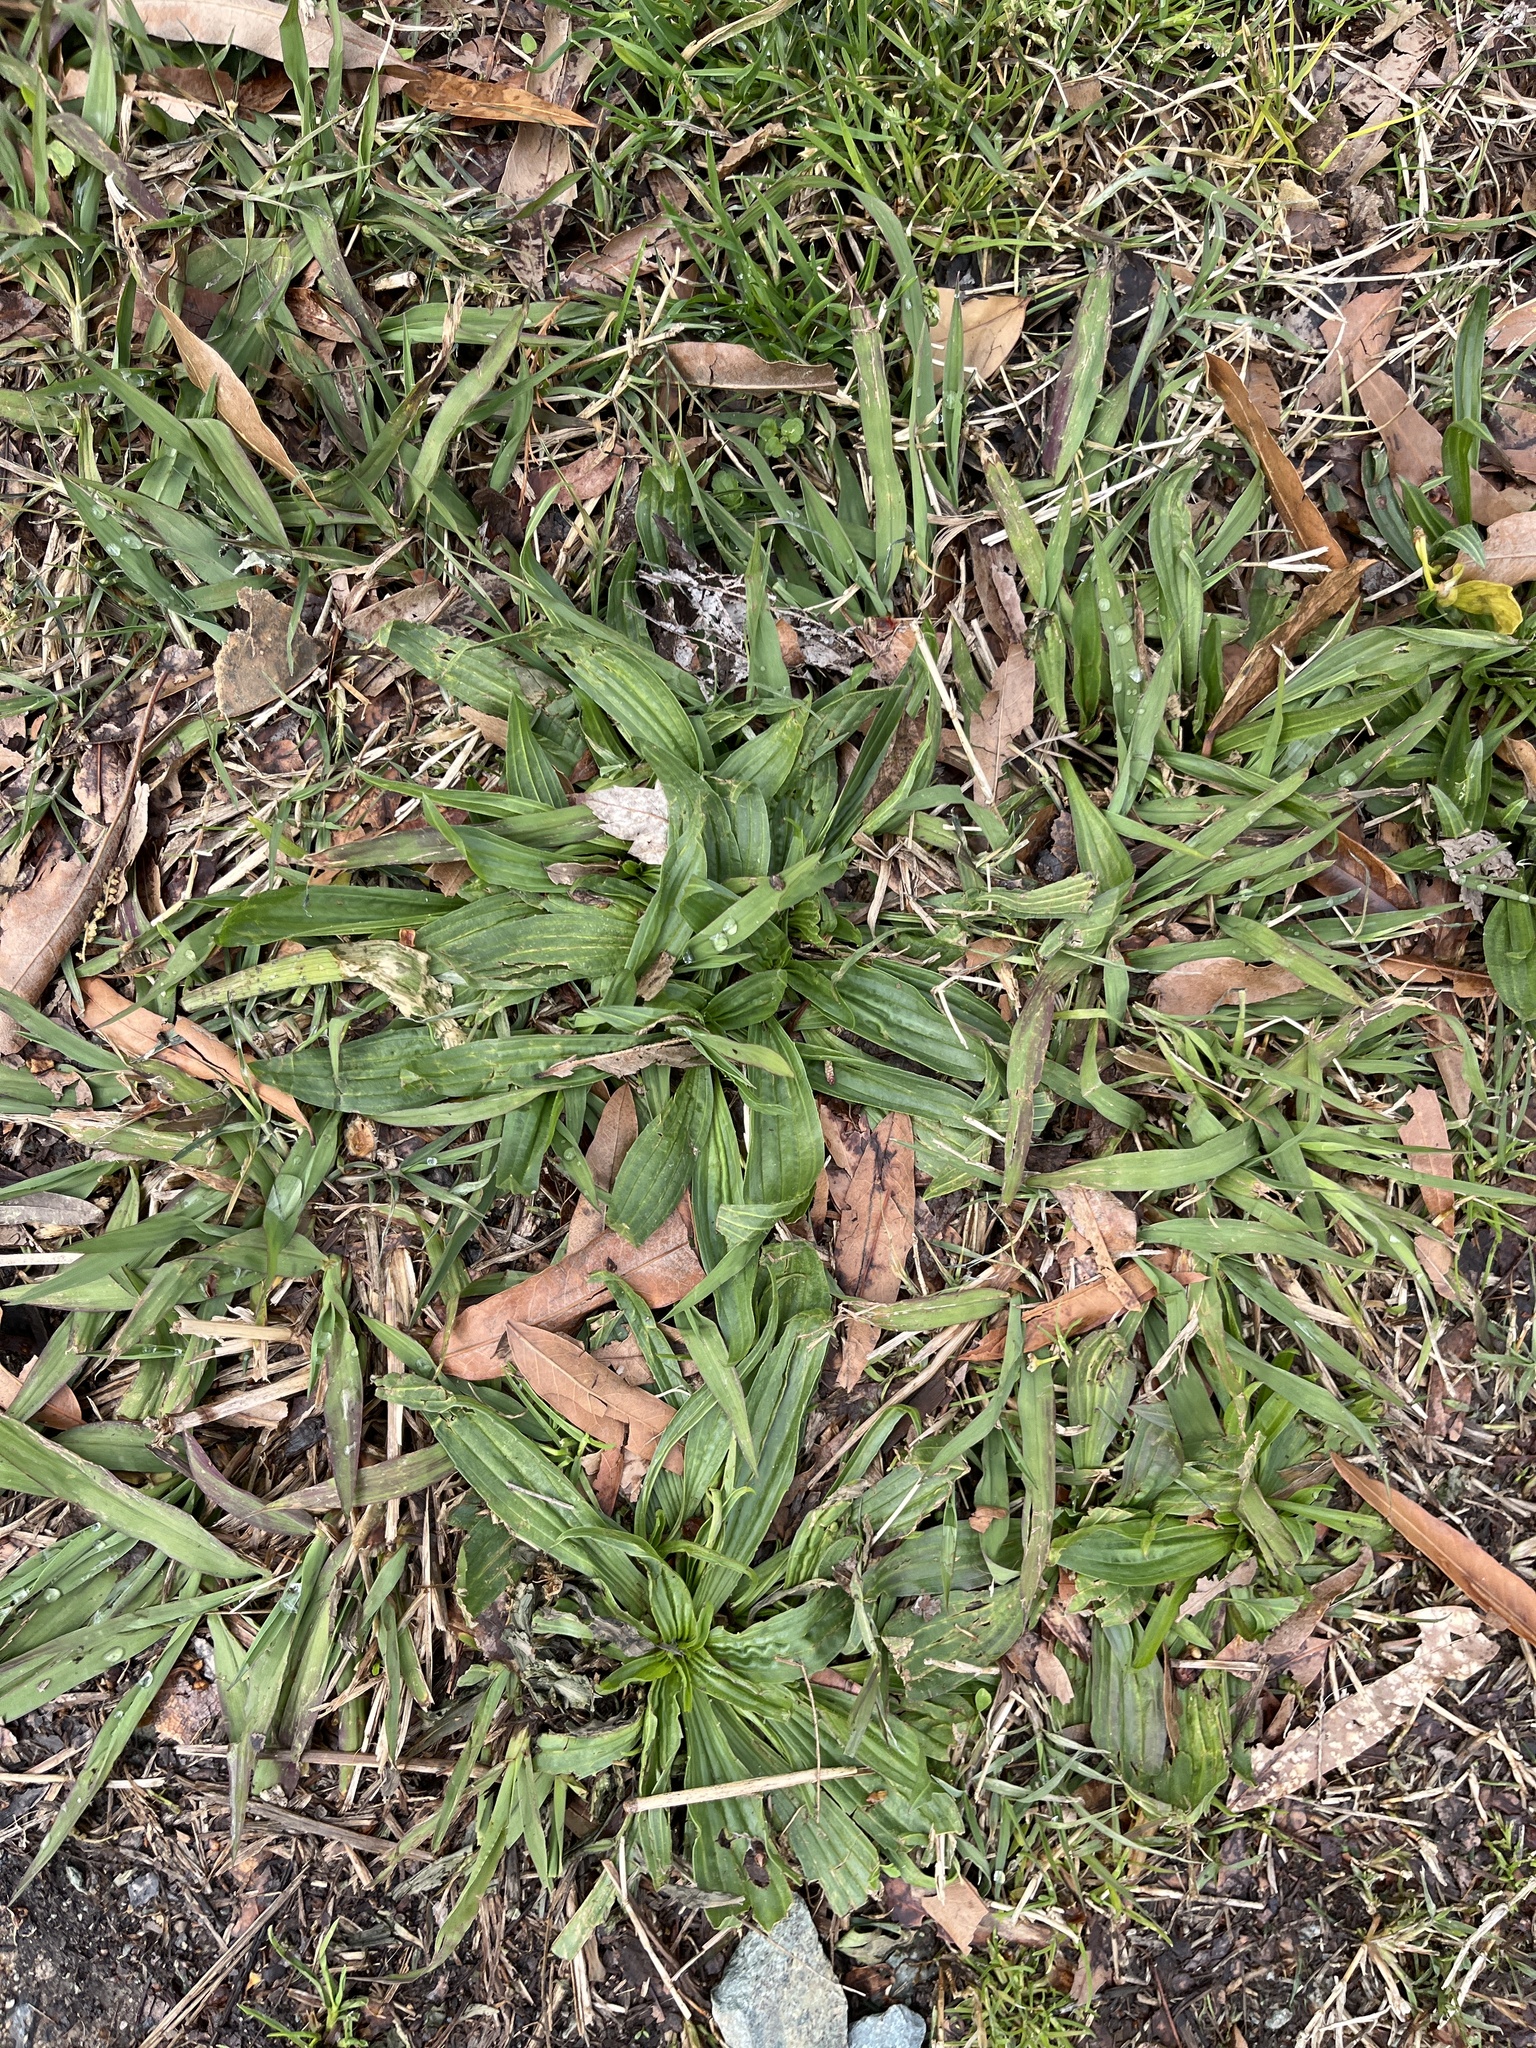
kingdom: Plantae
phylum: Tracheophyta
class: Magnoliopsida
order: Lamiales
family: Plantaginaceae
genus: Plantago
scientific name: Plantago lanceolata
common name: Ribwort plantain
